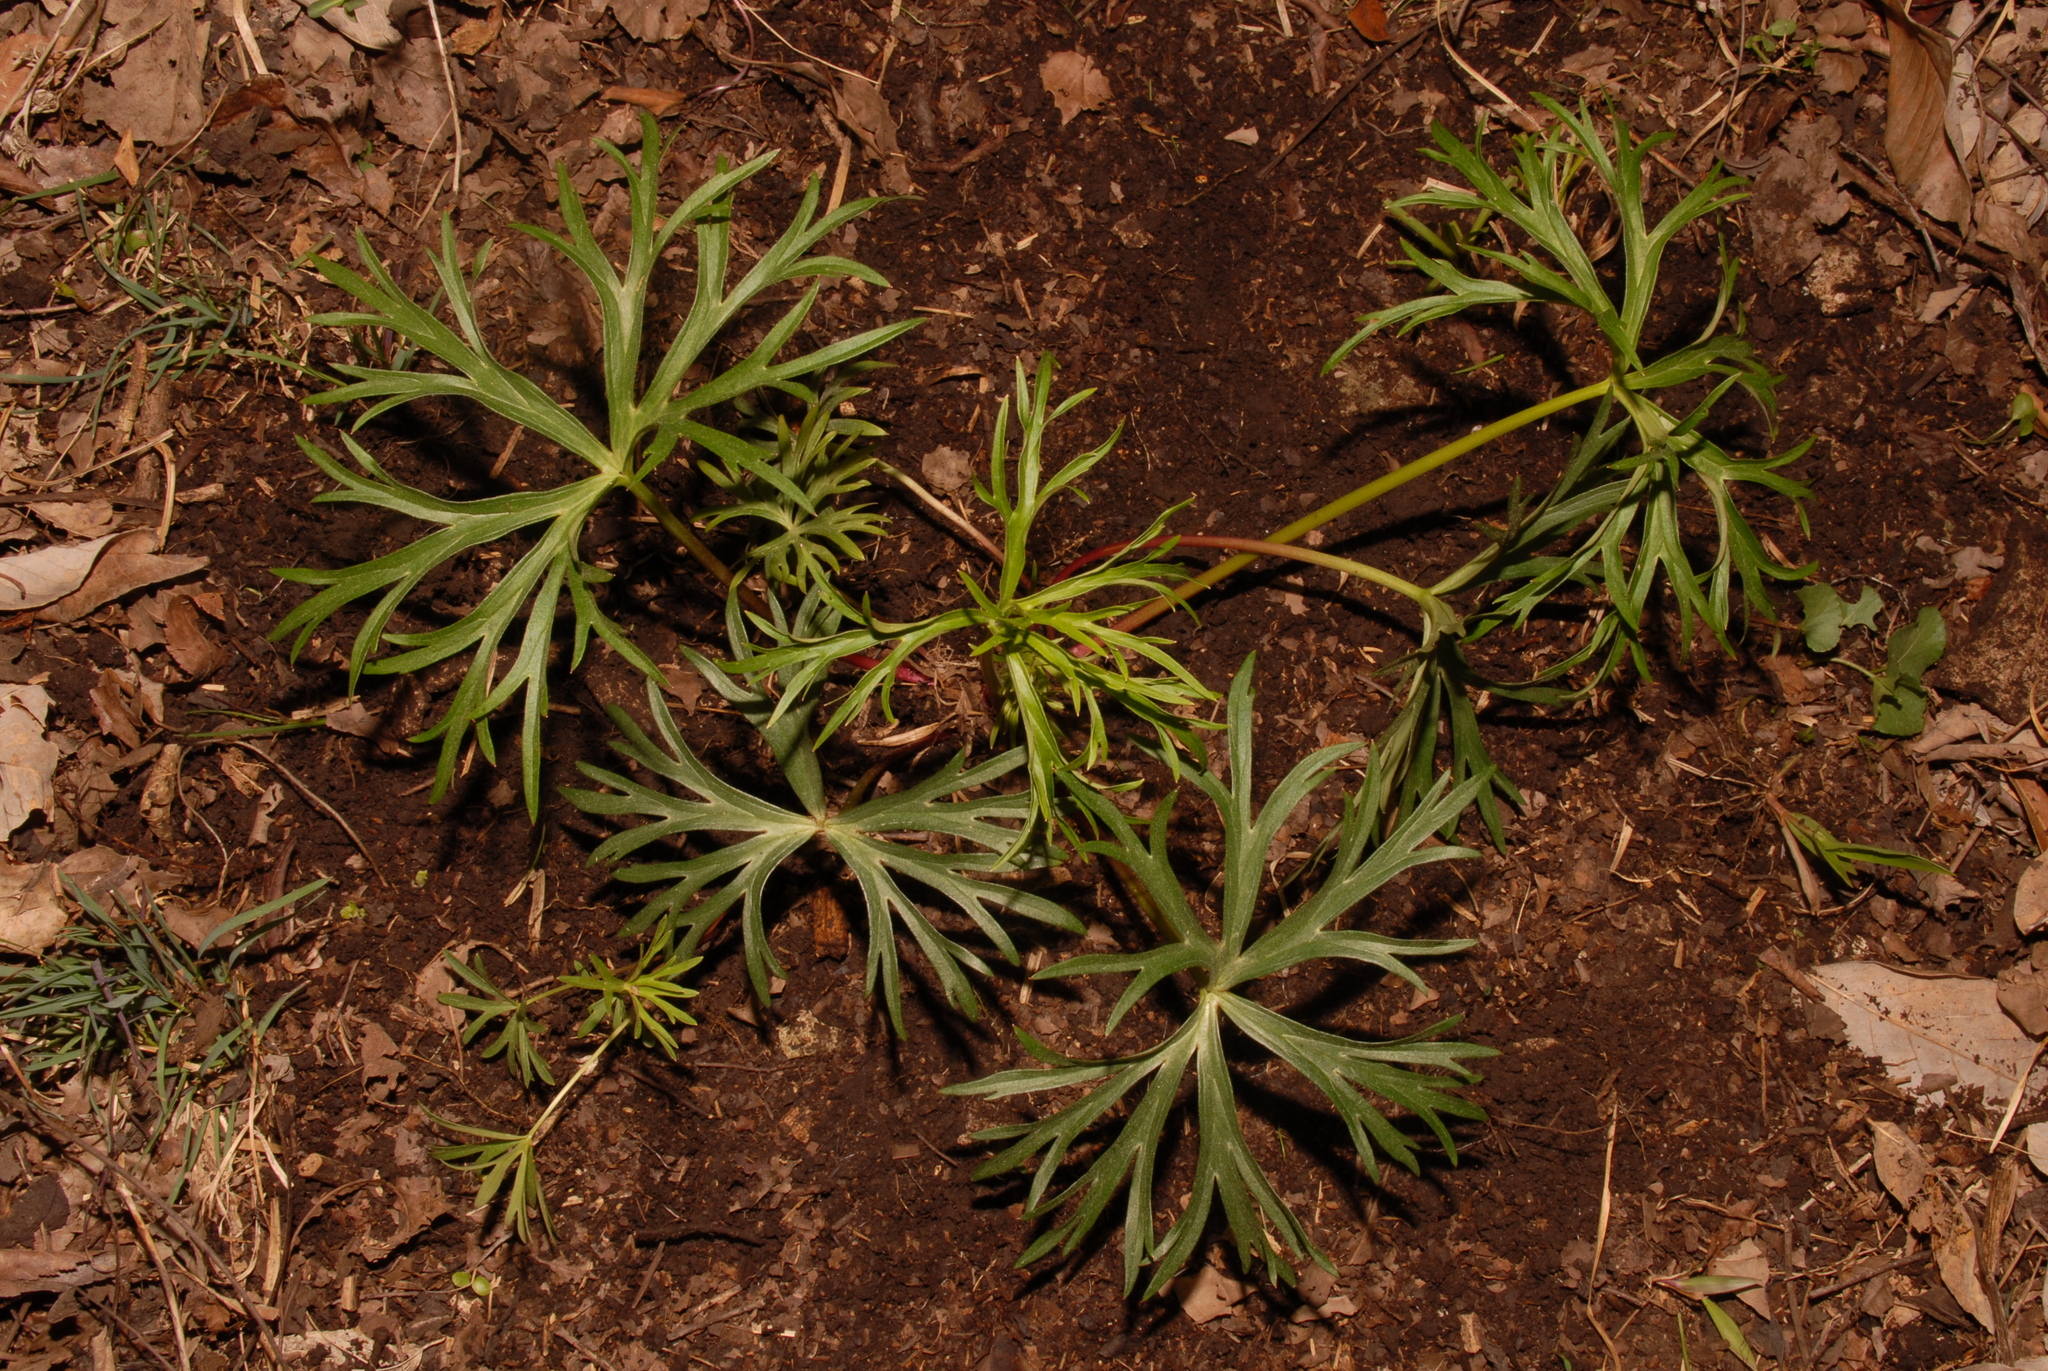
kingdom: Plantae
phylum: Tracheophyta
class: Magnoliopsida
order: Ranunculales
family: Ranunculaceae
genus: Delphinium
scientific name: Delphinium alabamicum
